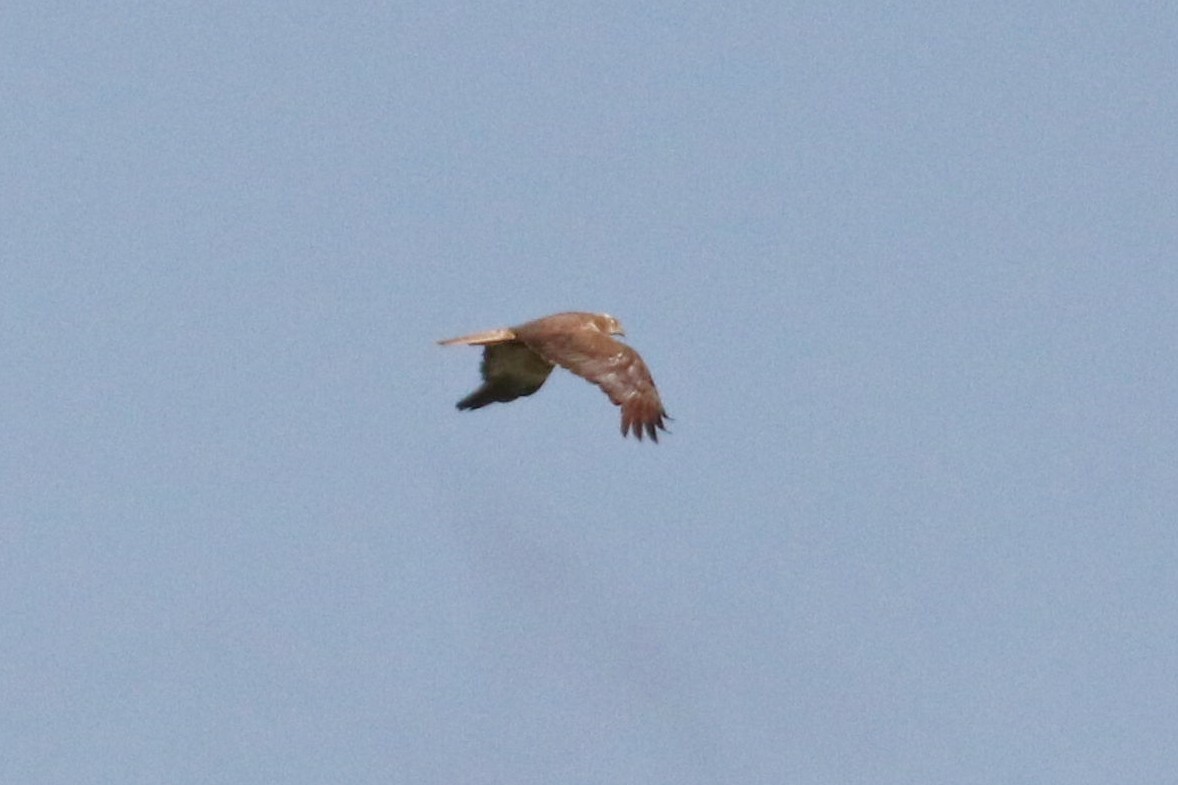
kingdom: Animalia
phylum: Chordata
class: Aves
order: Accipitriformes
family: Accipitridae
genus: Circus
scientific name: Circus aeruginosus
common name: Western marsh harrier
